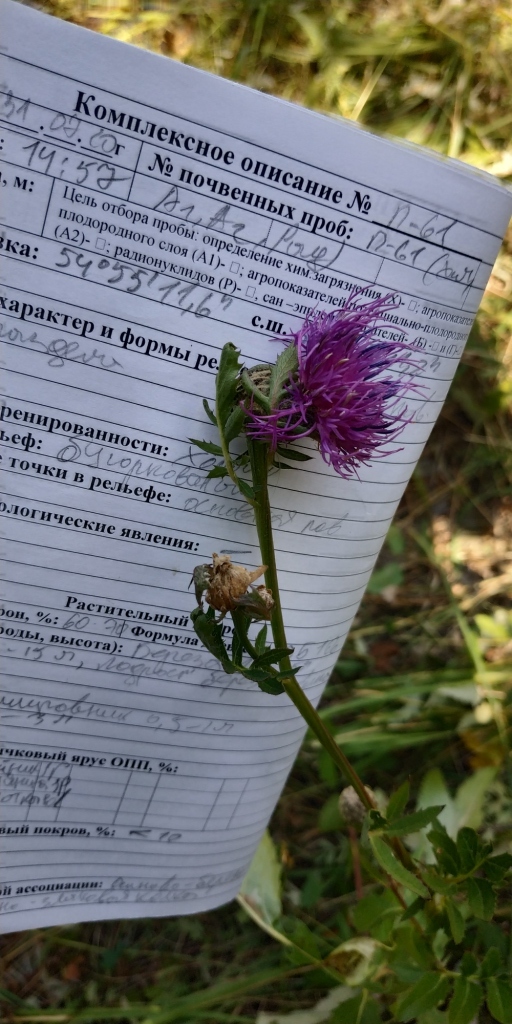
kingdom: Plantae
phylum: Tracheophyta
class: Magnoliopsida
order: Asterales
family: Asteraceae
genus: Serratula
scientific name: Serratula coronata
